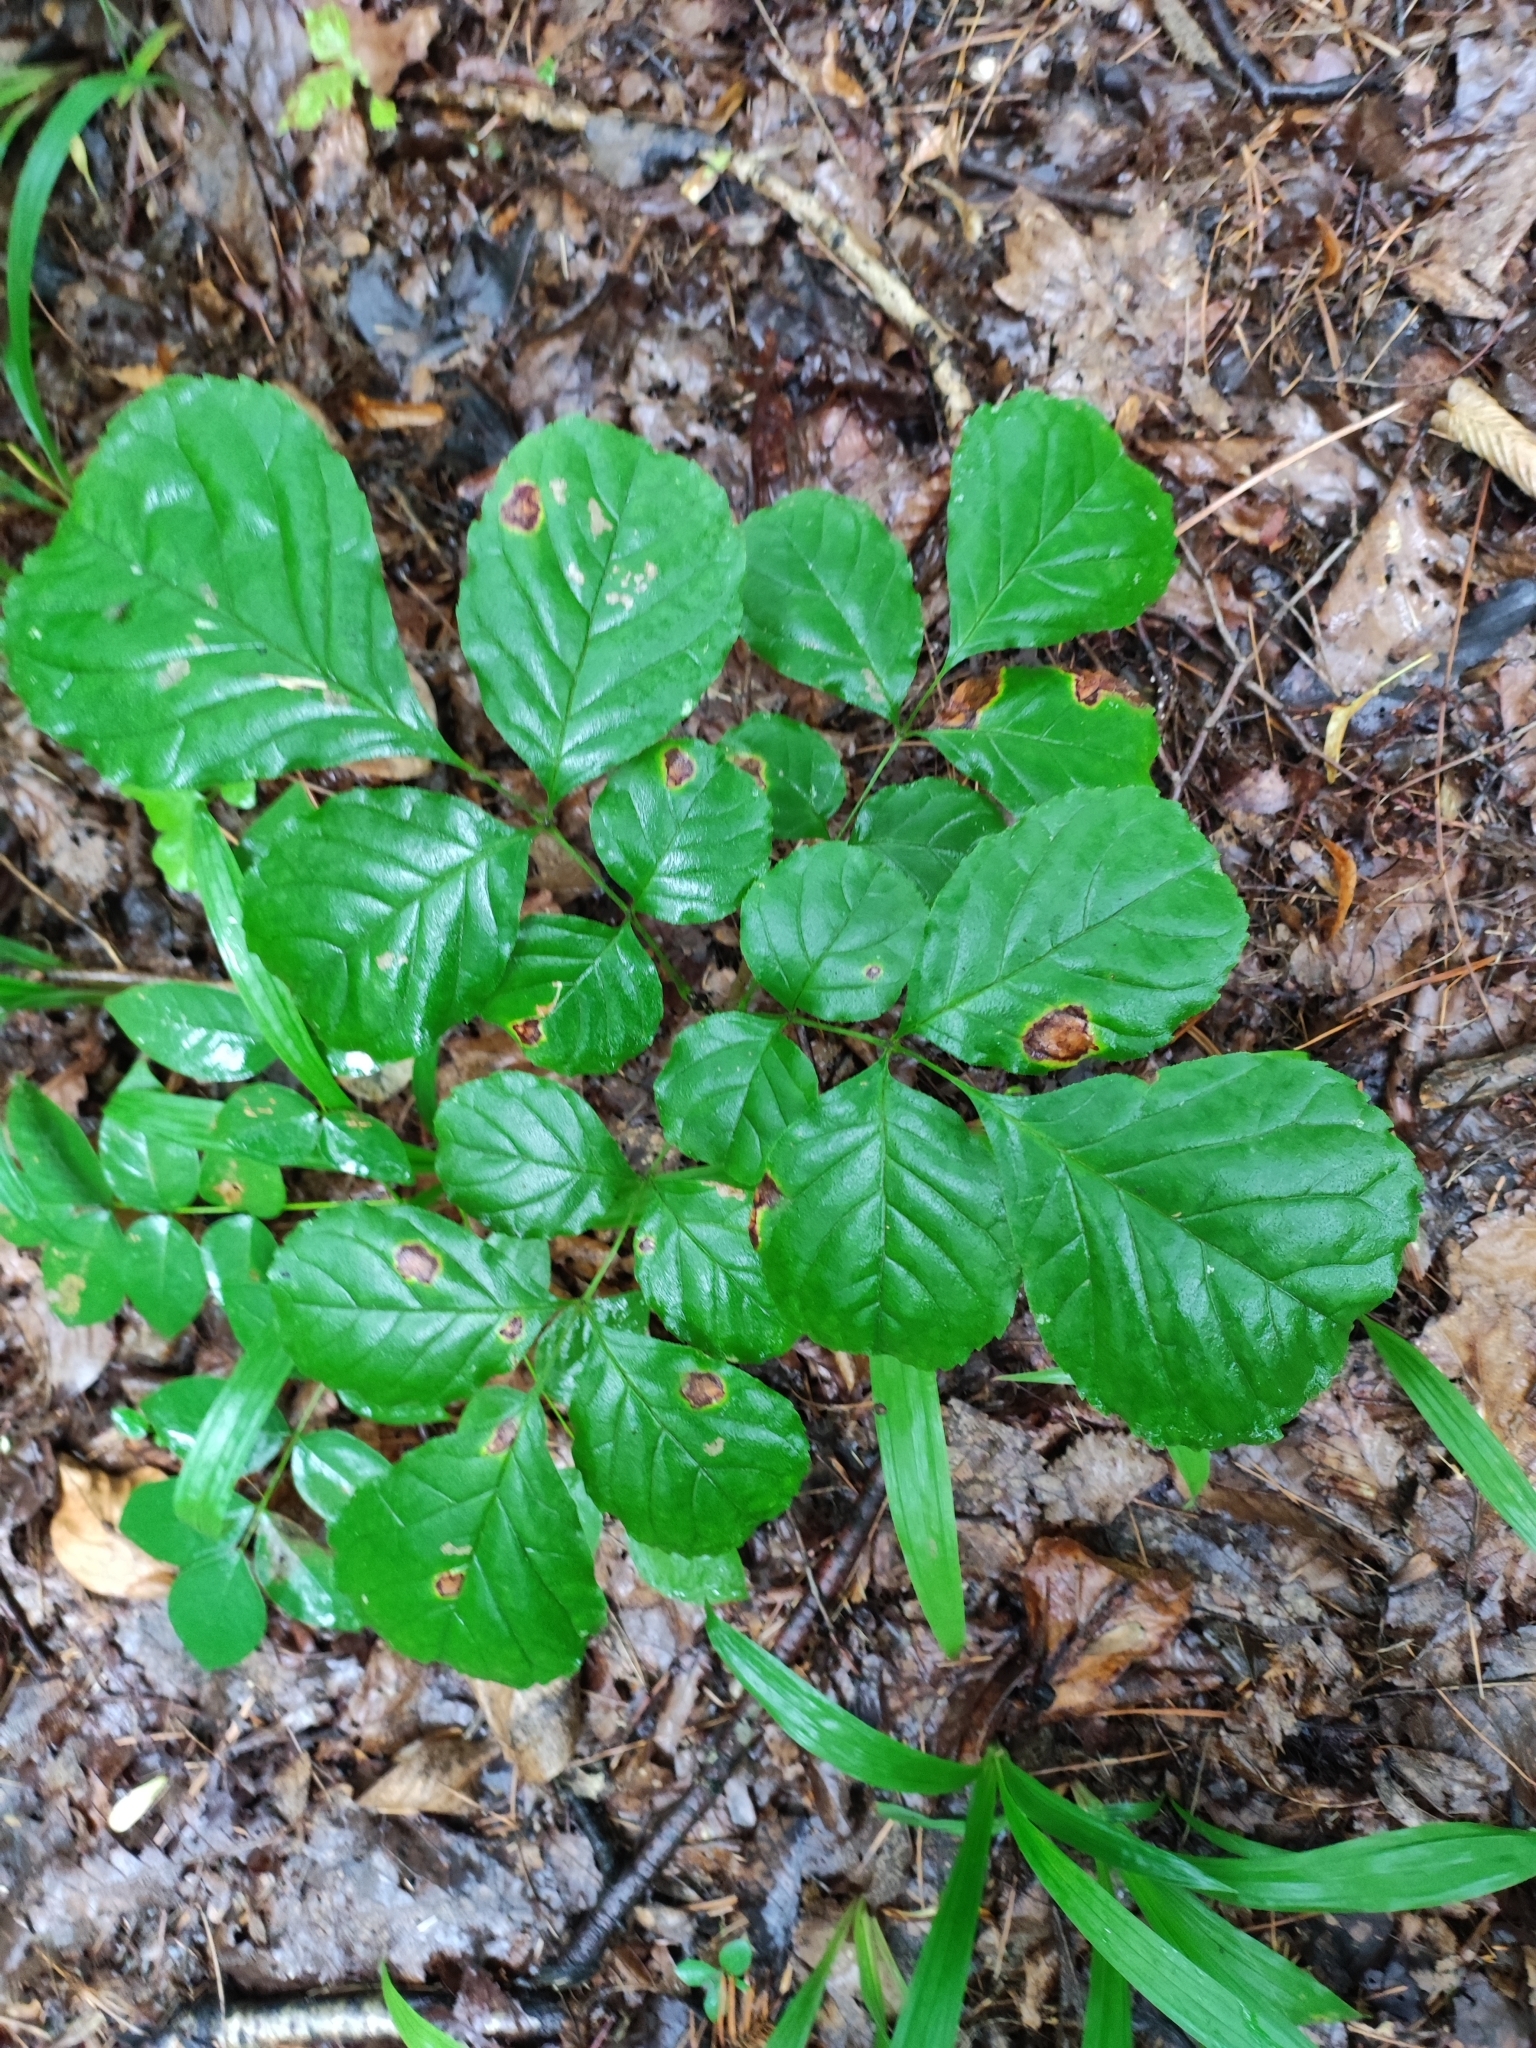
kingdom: Plantae
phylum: Tracheophyta
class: Magnoliopsida
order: Lamiales
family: Oleaceae
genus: Fraxinus
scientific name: Fraxinus chinensis
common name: Chinese ash
